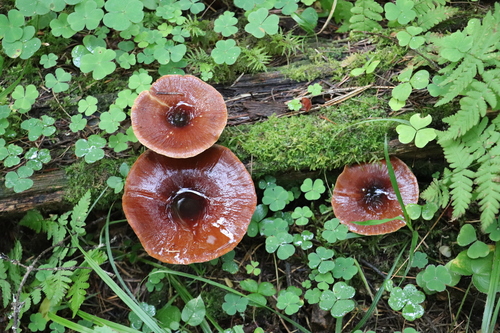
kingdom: Fungi
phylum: Basidiomycota
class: Agaricomycetes
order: Polyporales
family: Polyporaceae
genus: Picipes
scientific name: Picipes badius
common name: Bay polypore
